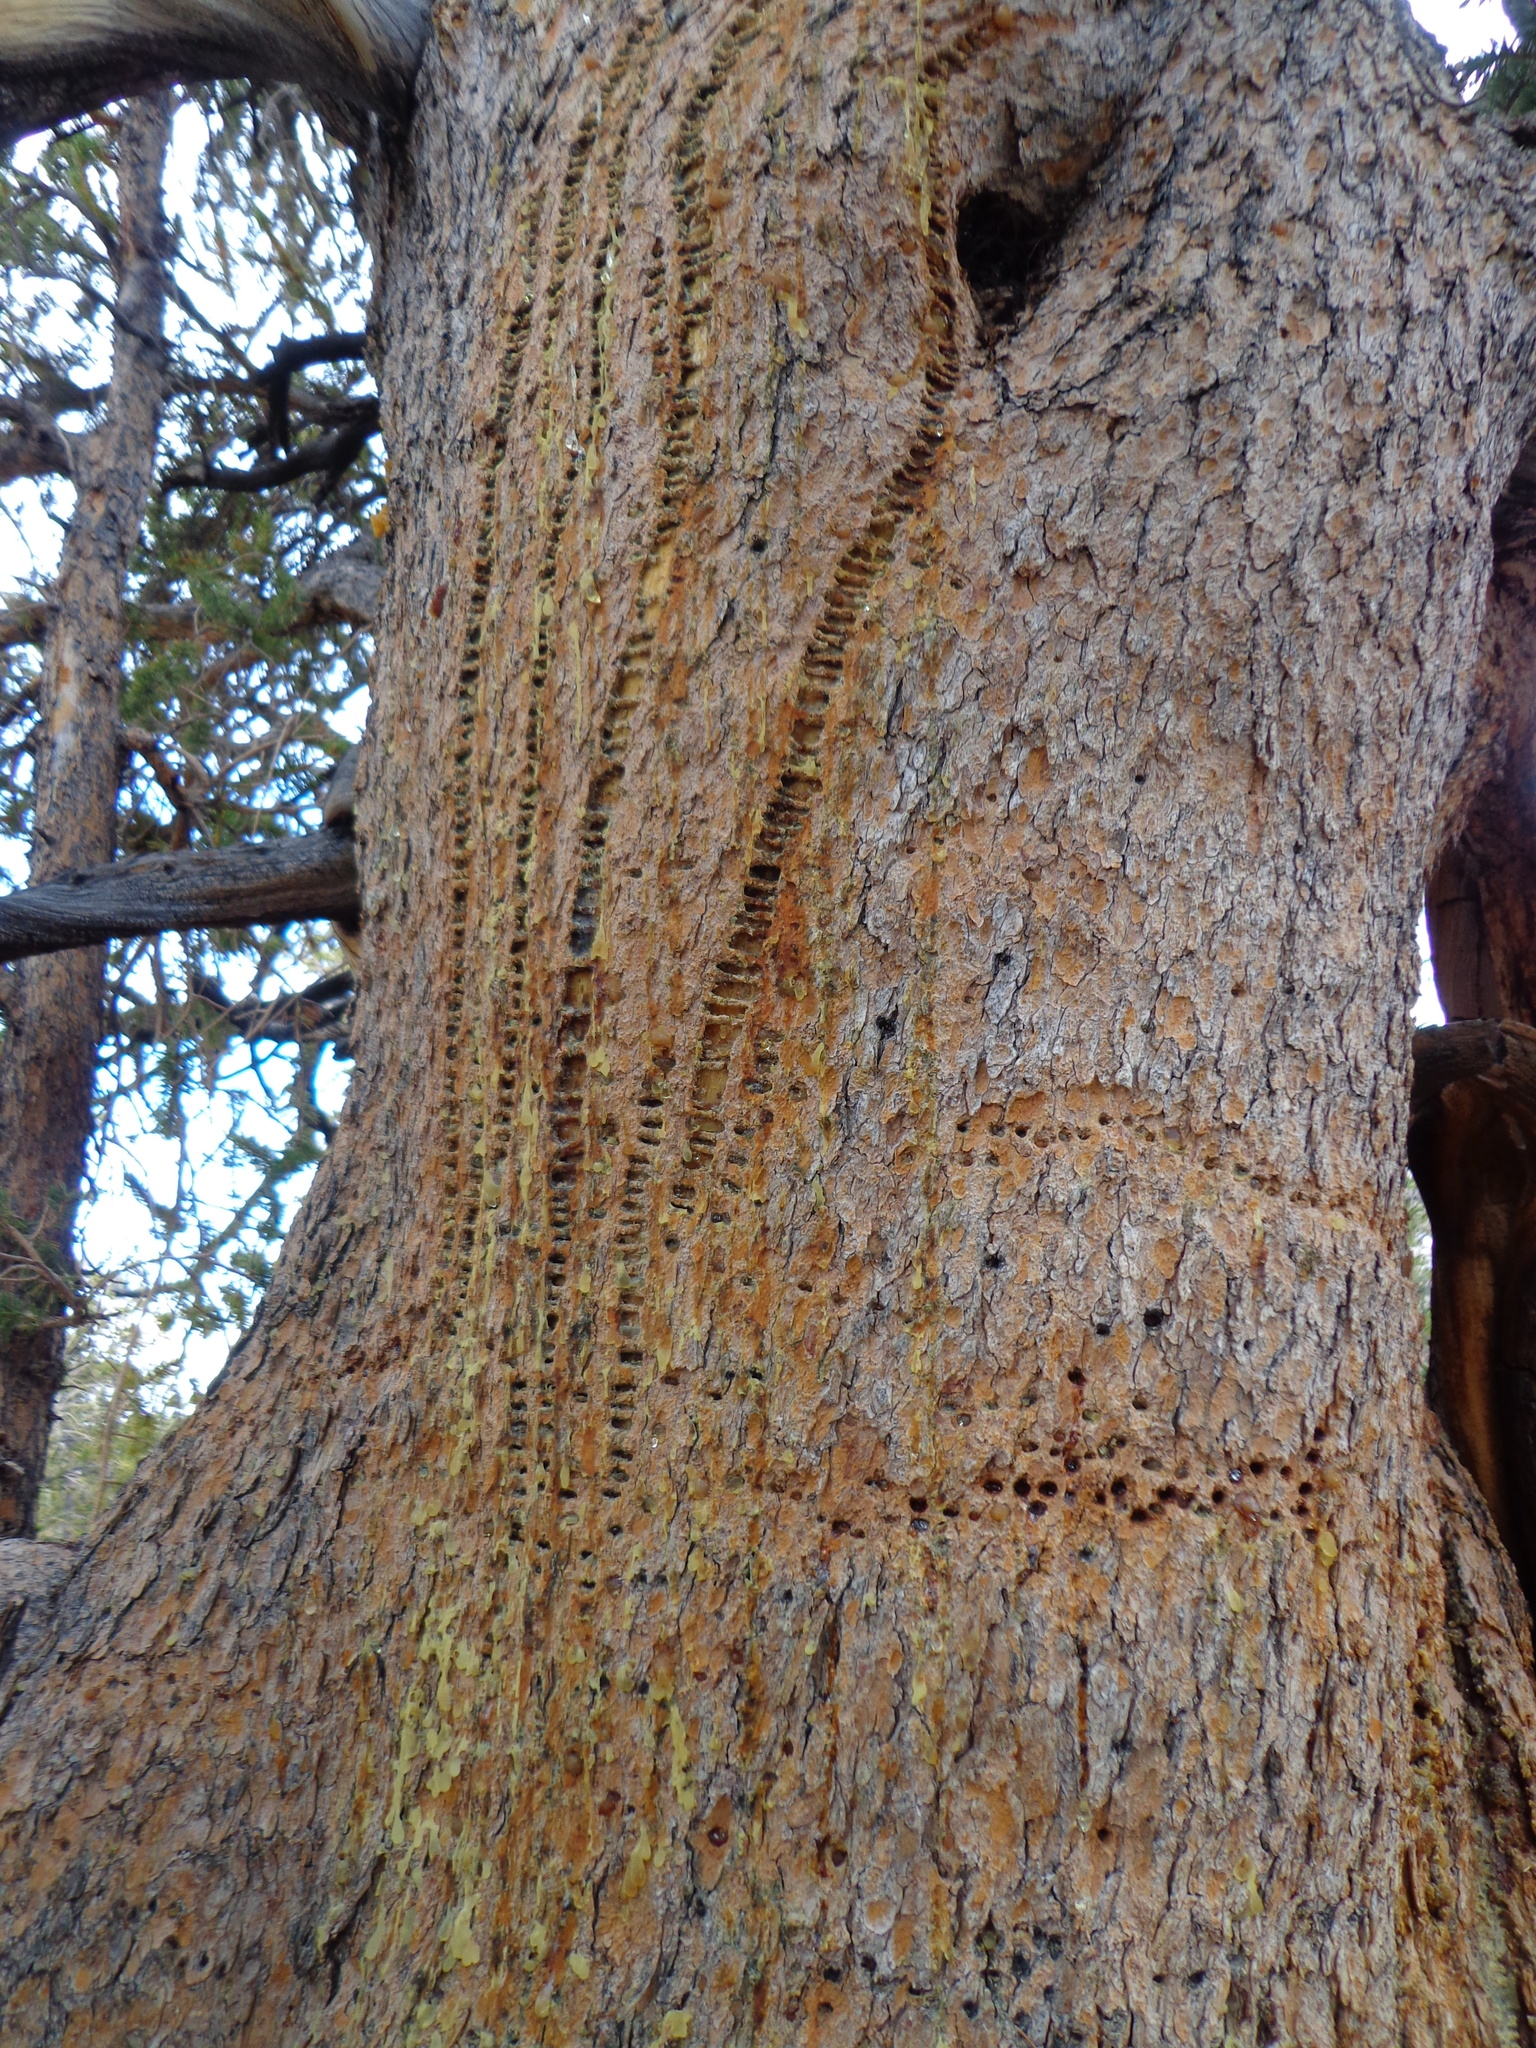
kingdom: Animalia
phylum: Chordata
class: Aves
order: Piciformes
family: Picidae
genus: Sphyrapicus
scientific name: Sphyrapicus
